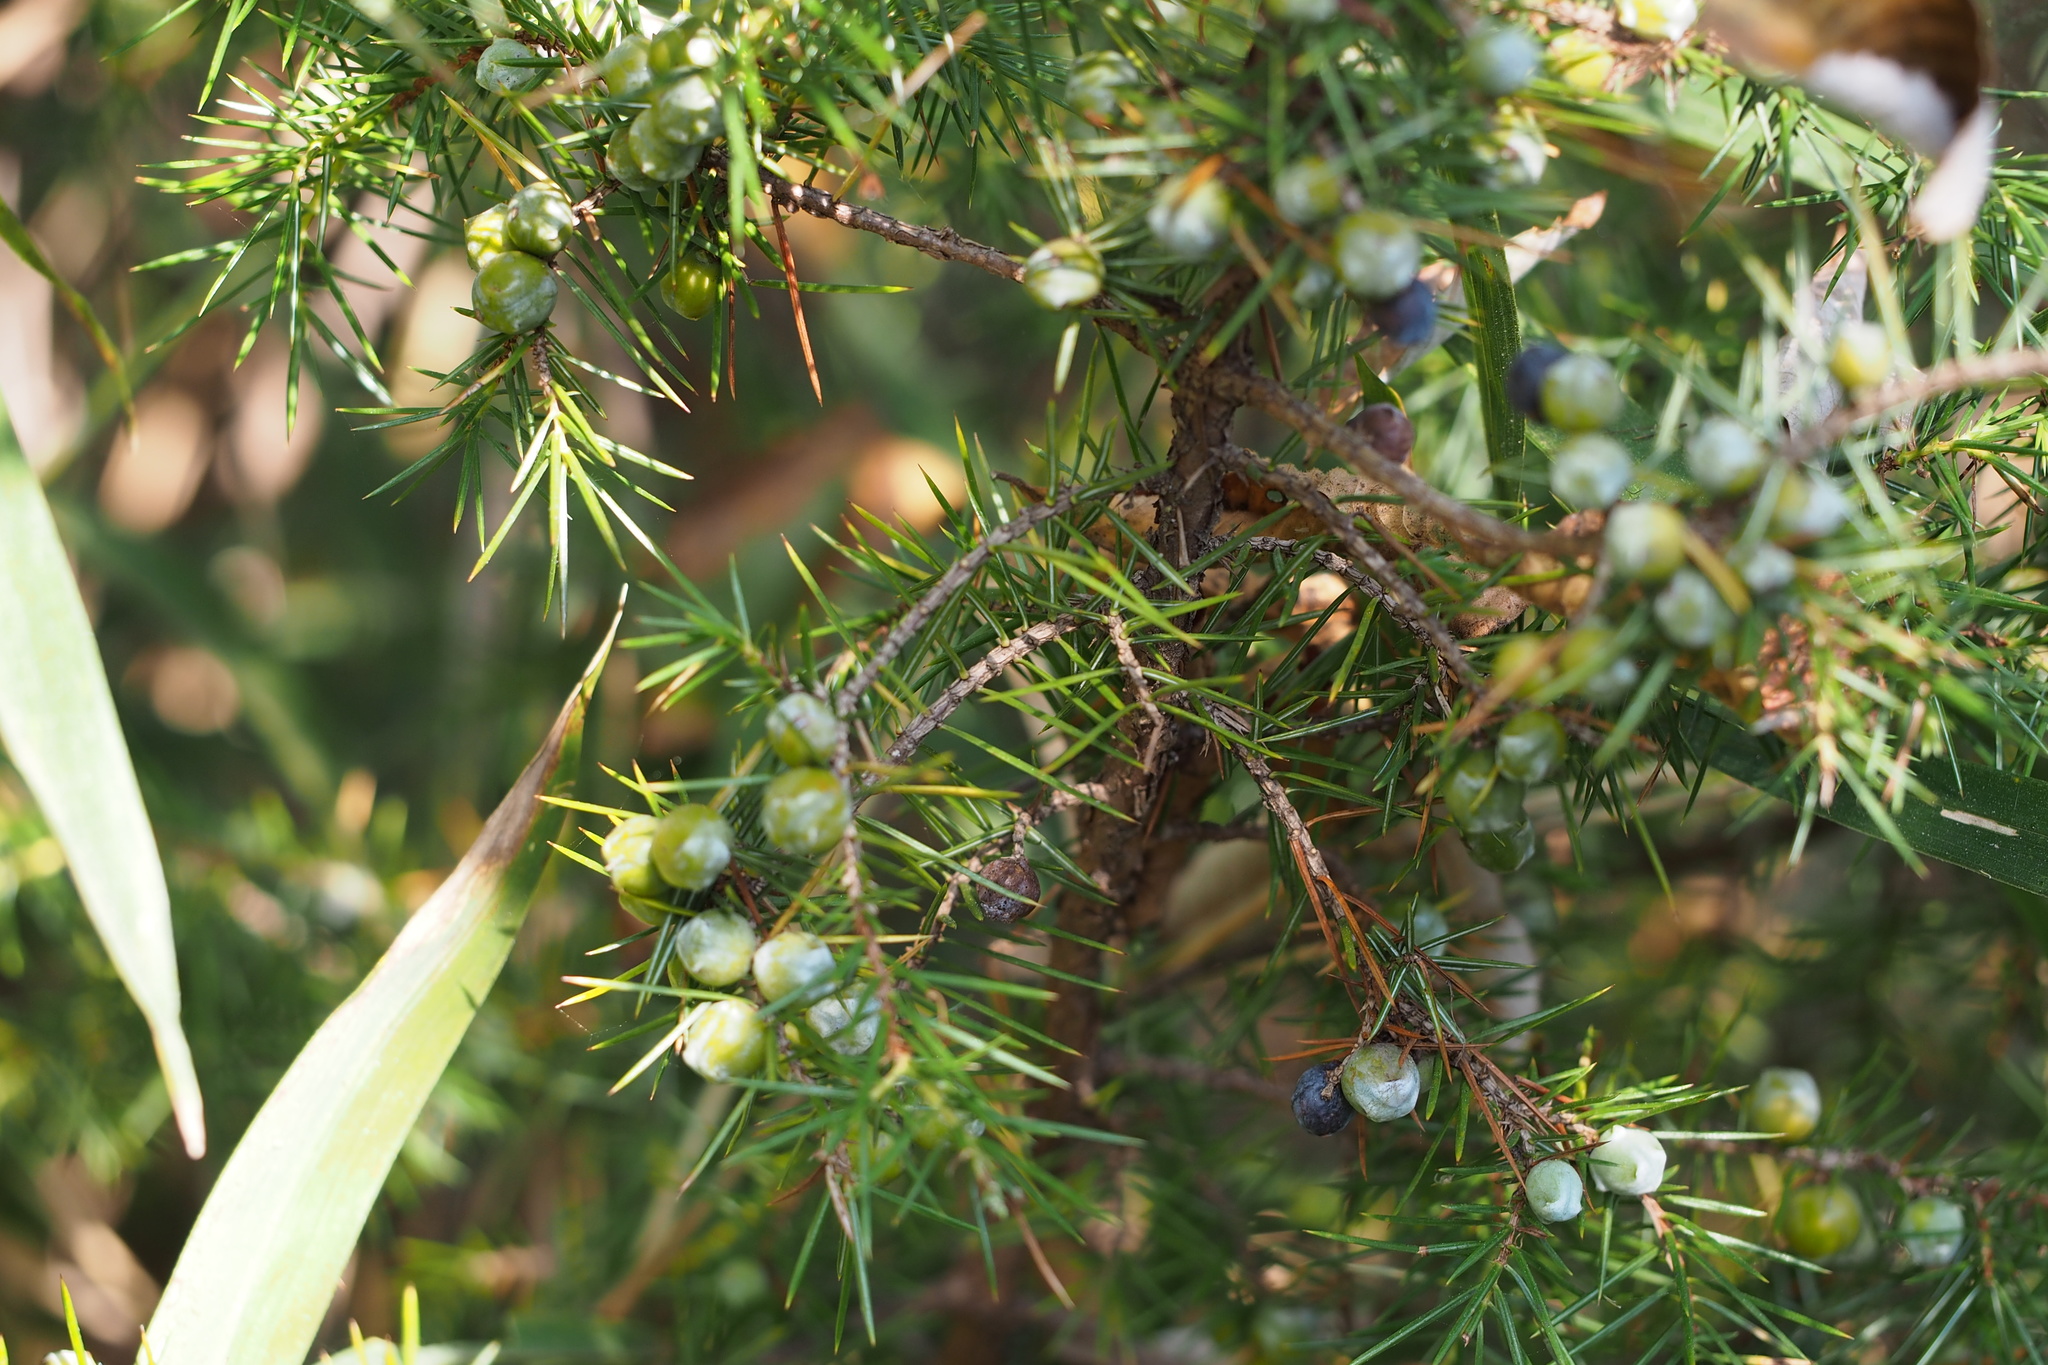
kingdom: Plantae
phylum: Tracheophyta
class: Pinopsida
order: Pinales
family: Cupressaceae
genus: Juniperus
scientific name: Juniperus rigida
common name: Needle juniper
